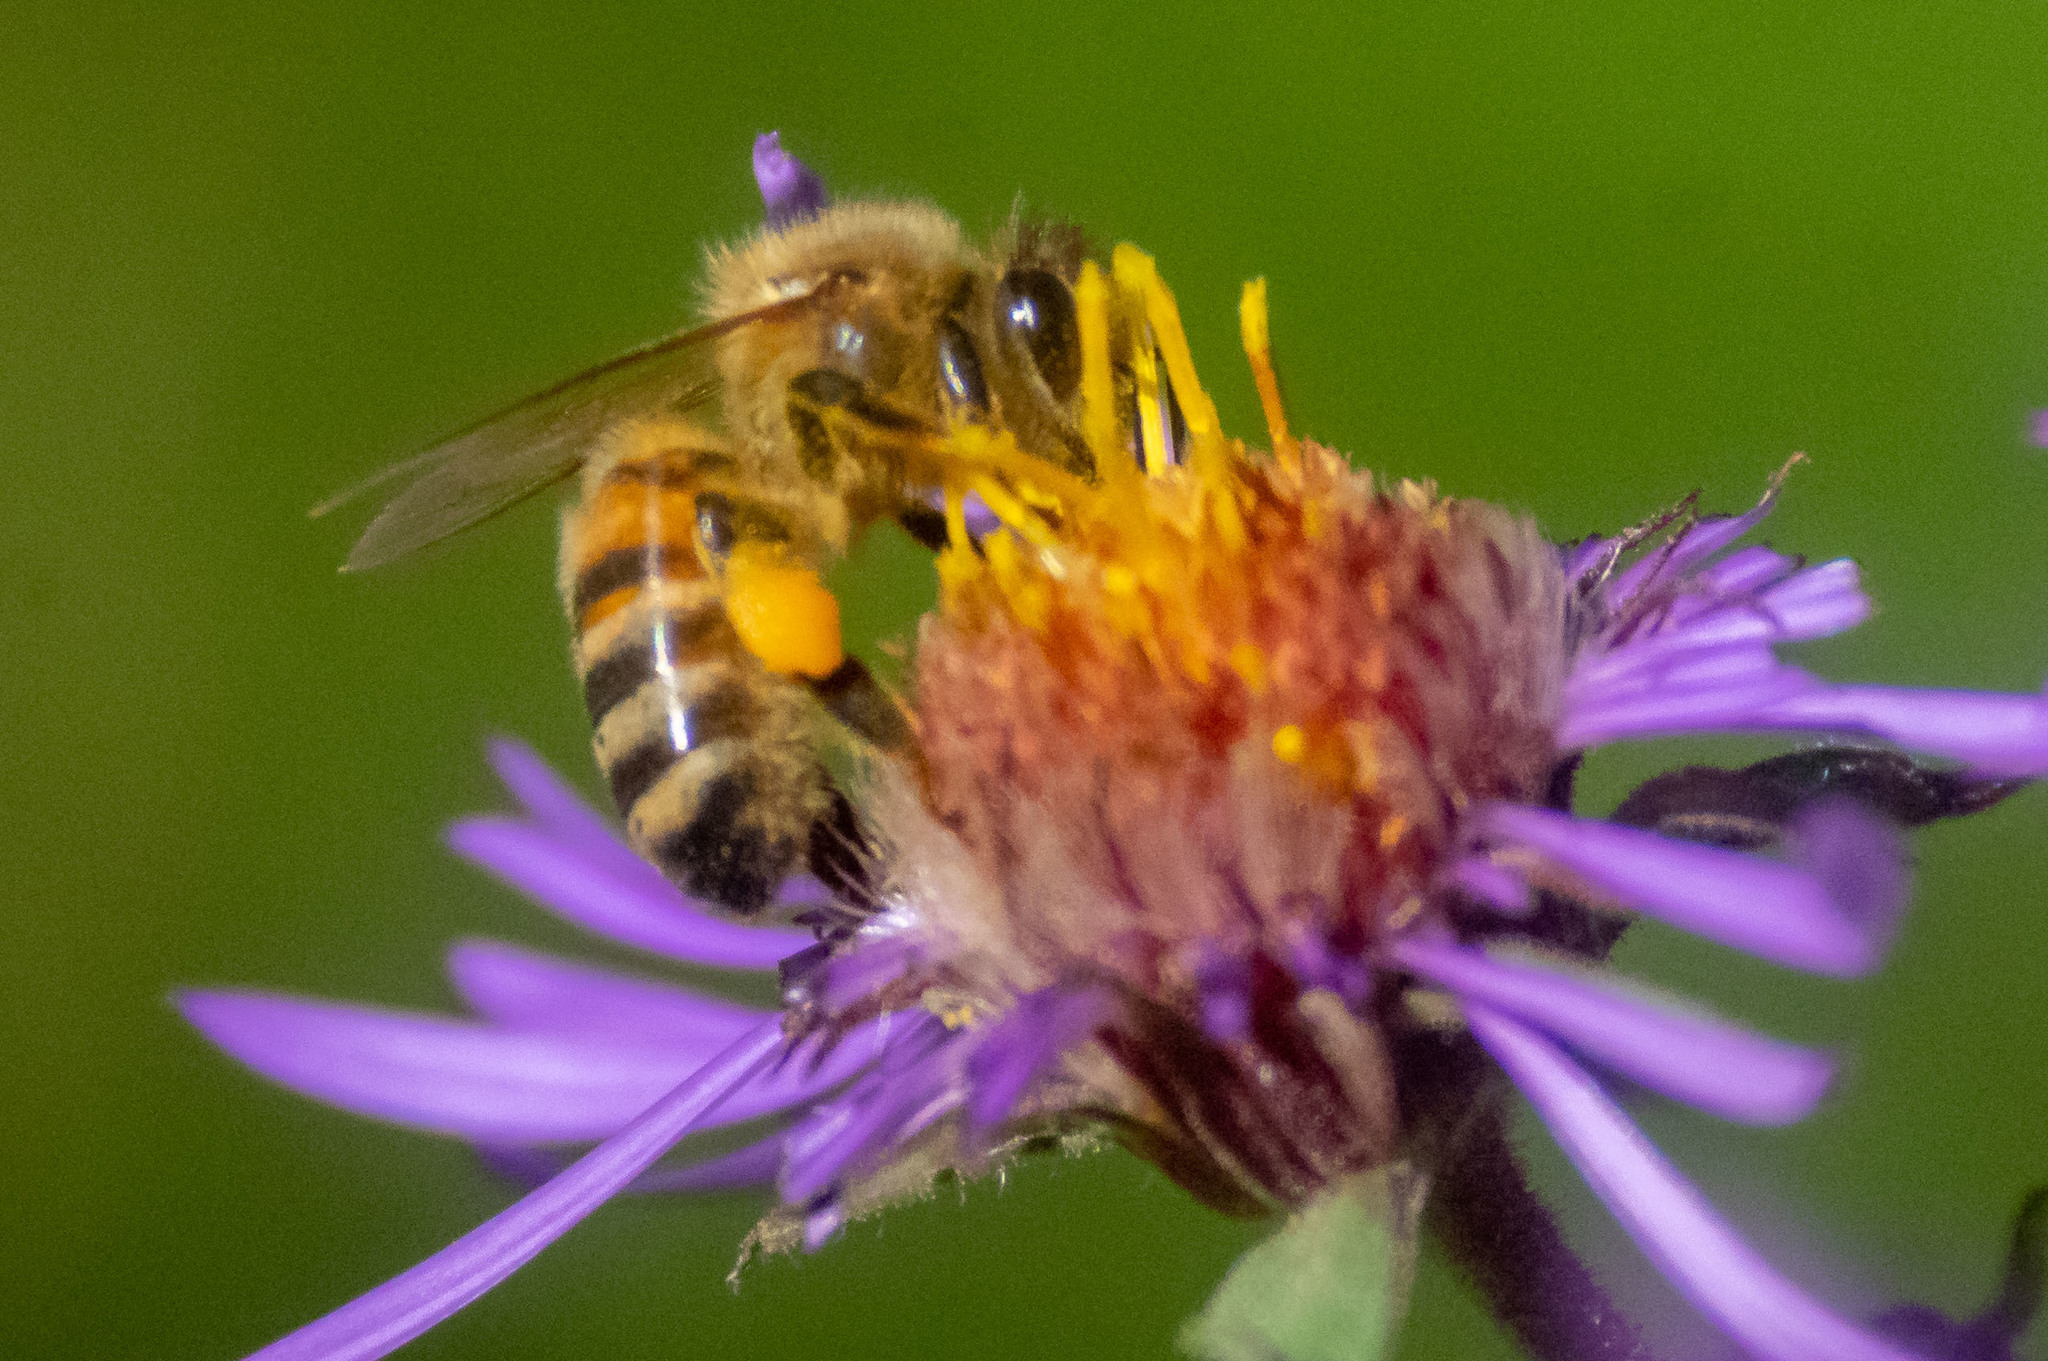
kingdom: Animalia
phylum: Arthropoda
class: Insecta
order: Hymenoptera
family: Apidae
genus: Apis
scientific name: Apis mellifera
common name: Honey bee
